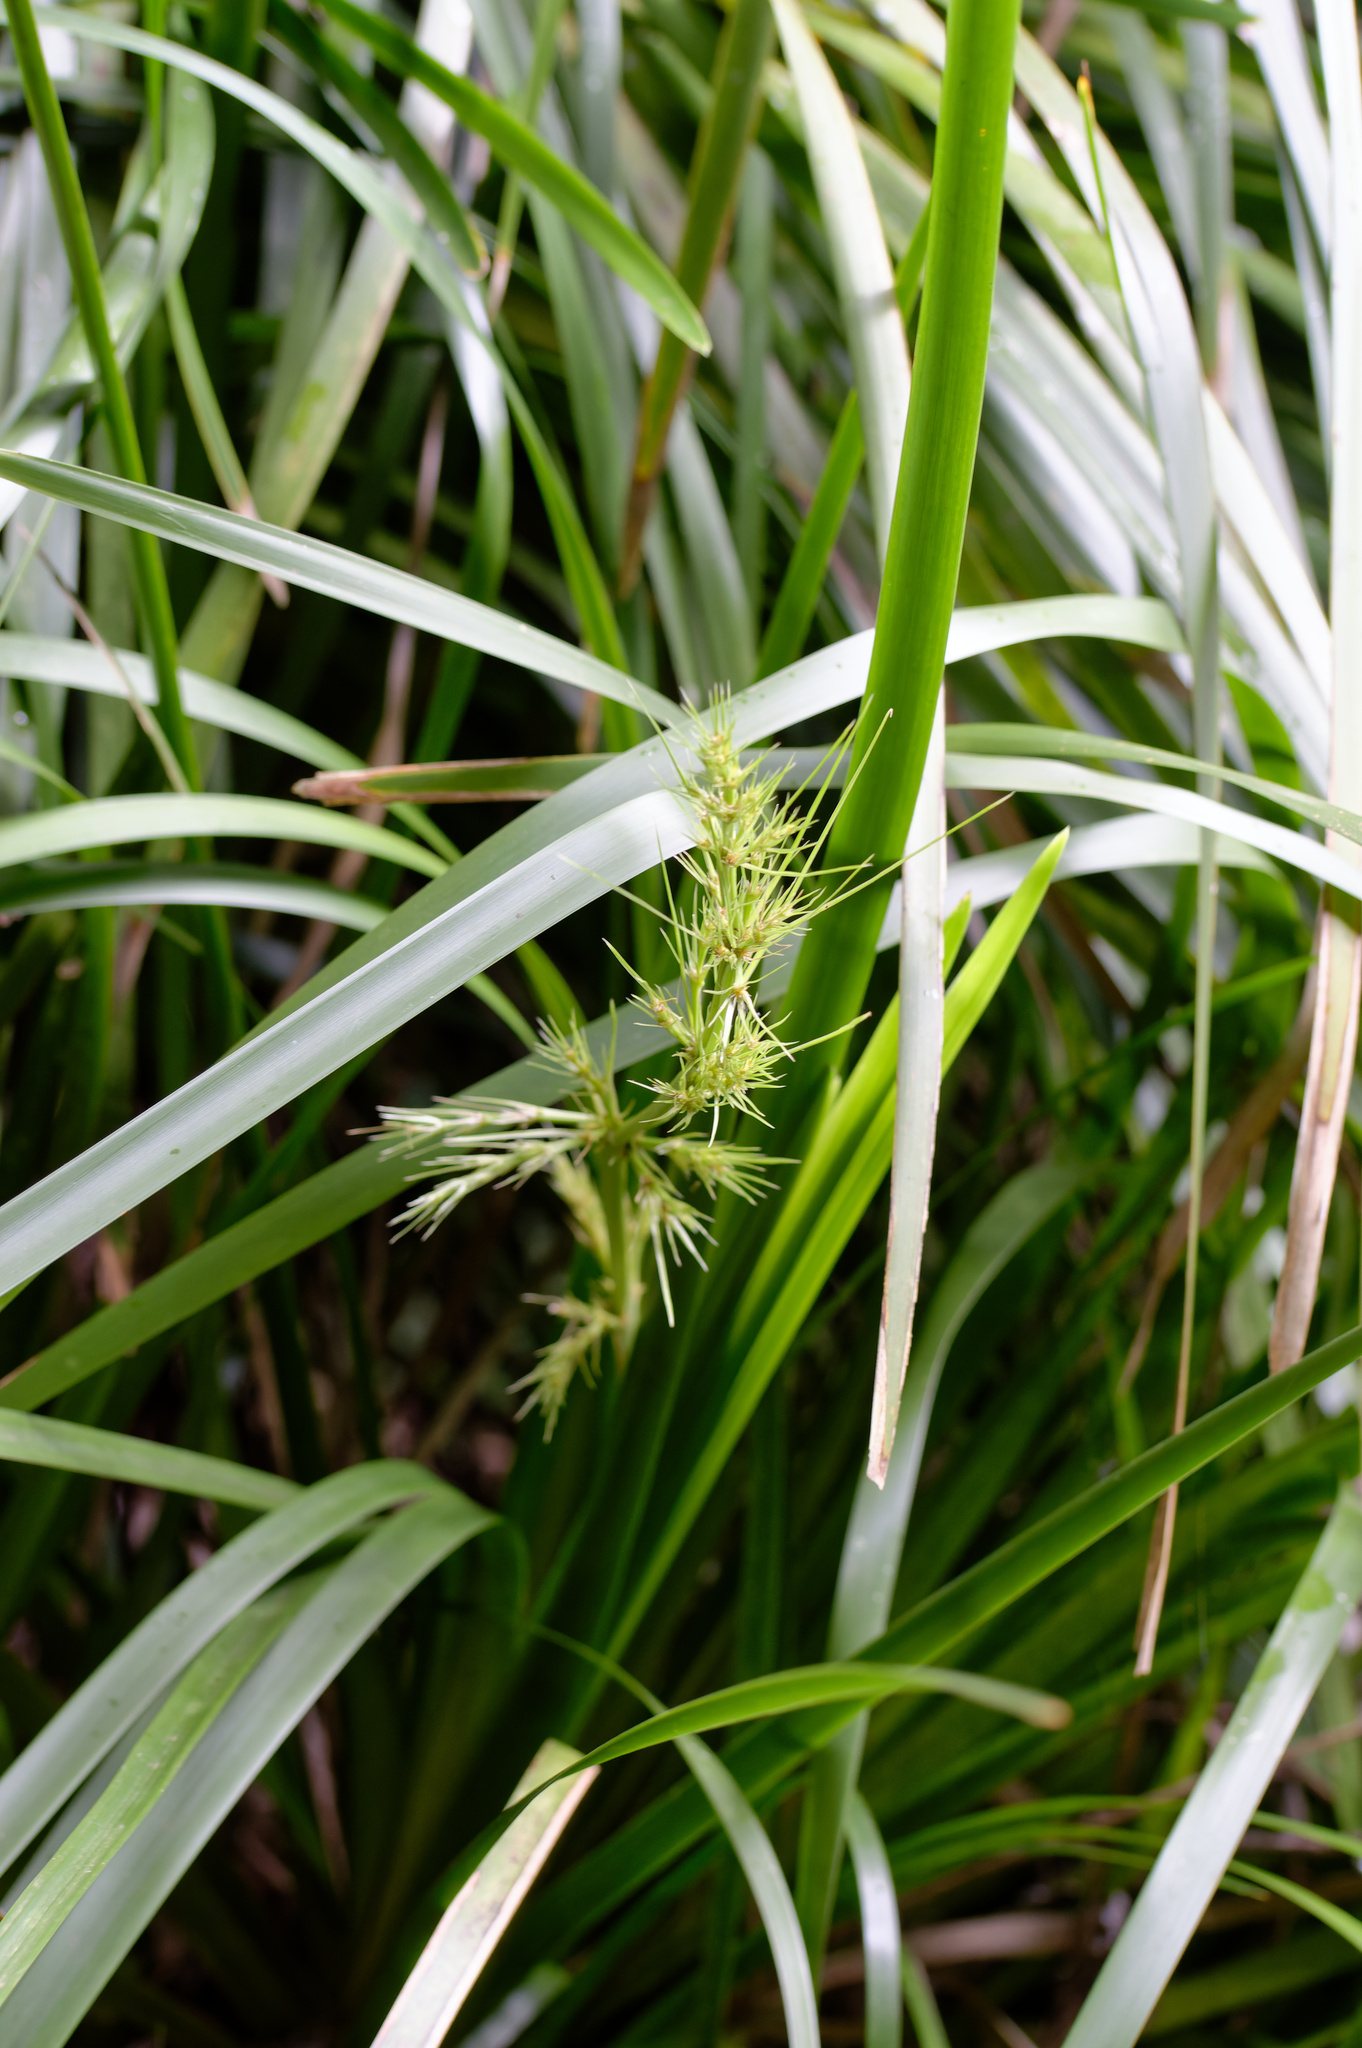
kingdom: Plantae
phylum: Tracheophyta
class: Liliopsida
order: Asparagales
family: Asparagaceae
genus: Lomandra
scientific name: Lomandra hystrix
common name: Creek mat-rush
